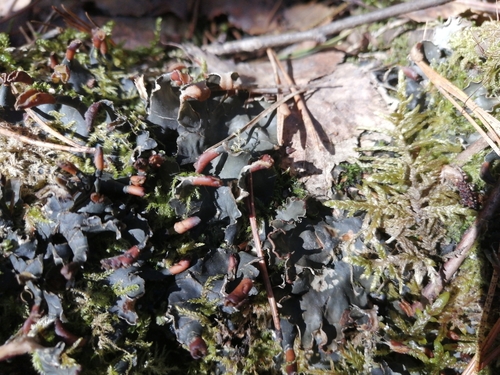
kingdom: Fungi
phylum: Ascomycota
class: Lecanoromycetes
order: Peltigerales
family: Peltigeraceae
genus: Peltigera
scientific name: Peltigera polydactylon
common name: Many-fruited pelt lichen
